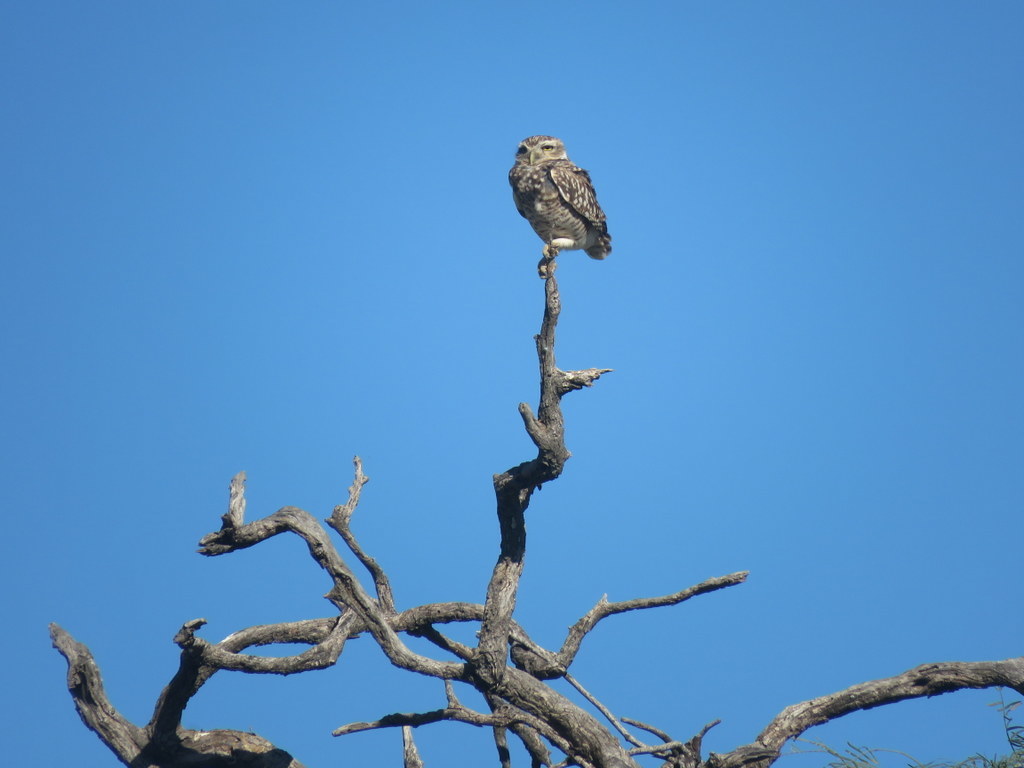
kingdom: Animalia
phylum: Chordata
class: Aves
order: Strigiformes
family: Strigidae
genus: Athene
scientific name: Athene cunicularia
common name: Burrowing owl
